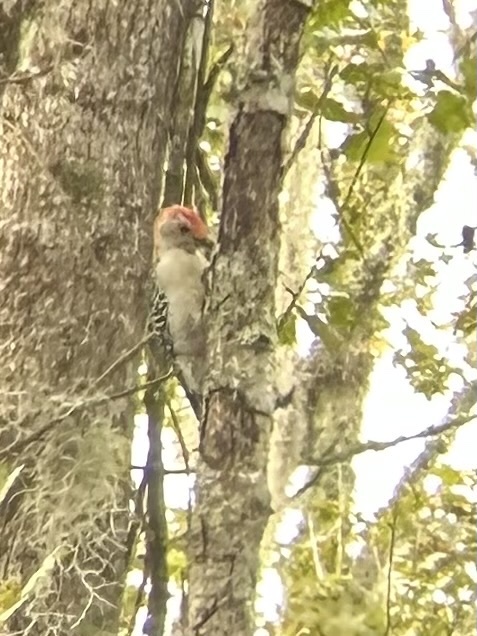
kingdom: Animalia
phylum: Chordata
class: Aves
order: Piciformes
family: Picidae
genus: Melanerpes
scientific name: Melanerpes carolinus
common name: Red-bellied woodpecker
